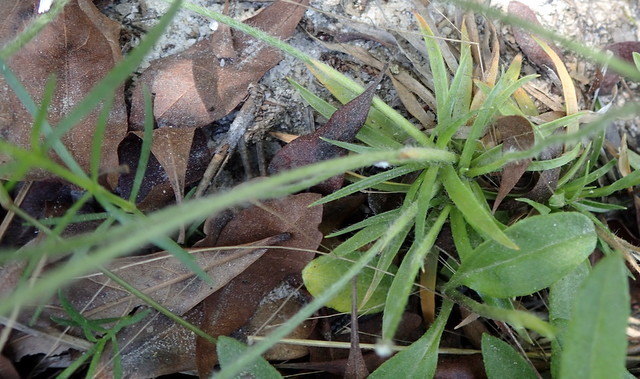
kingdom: Plantae
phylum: Tracheophyta
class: Liliopsida
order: Poales
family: Eriocaulaceae
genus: Paepalanthus
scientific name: Paepalanthus anceps
